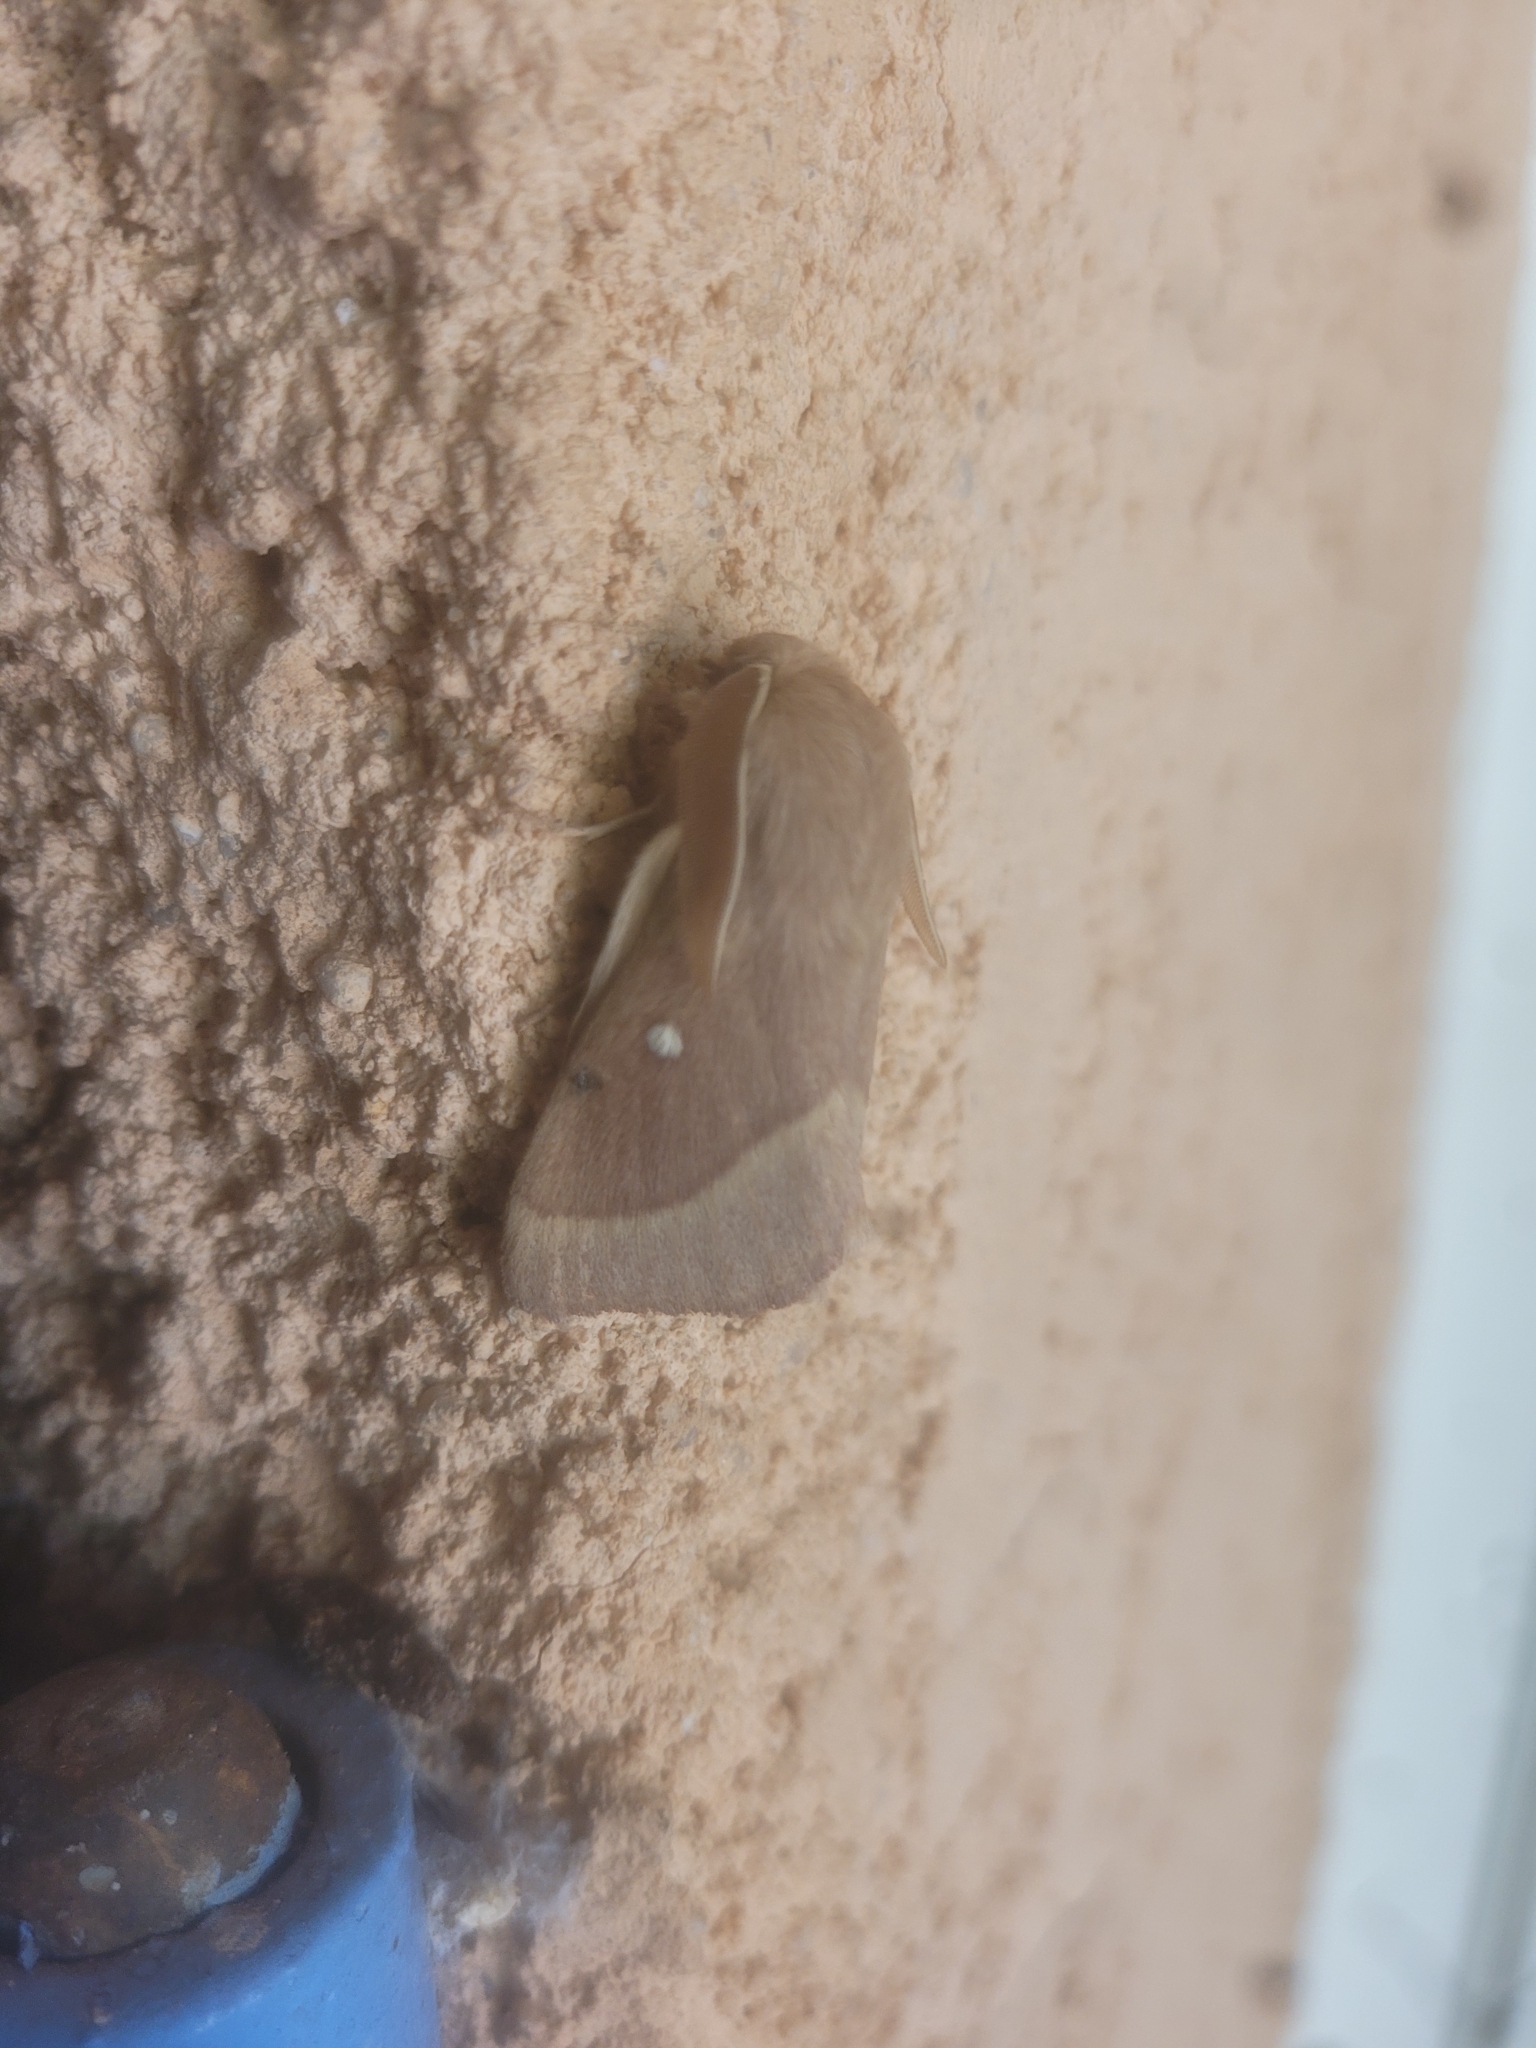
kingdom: Animalia
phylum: Arthropoda
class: Insecta
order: Lepidoptera
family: Lasiocampidae
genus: Lasiocampa
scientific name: Lasiocampa trifolii
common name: Grass eggar
